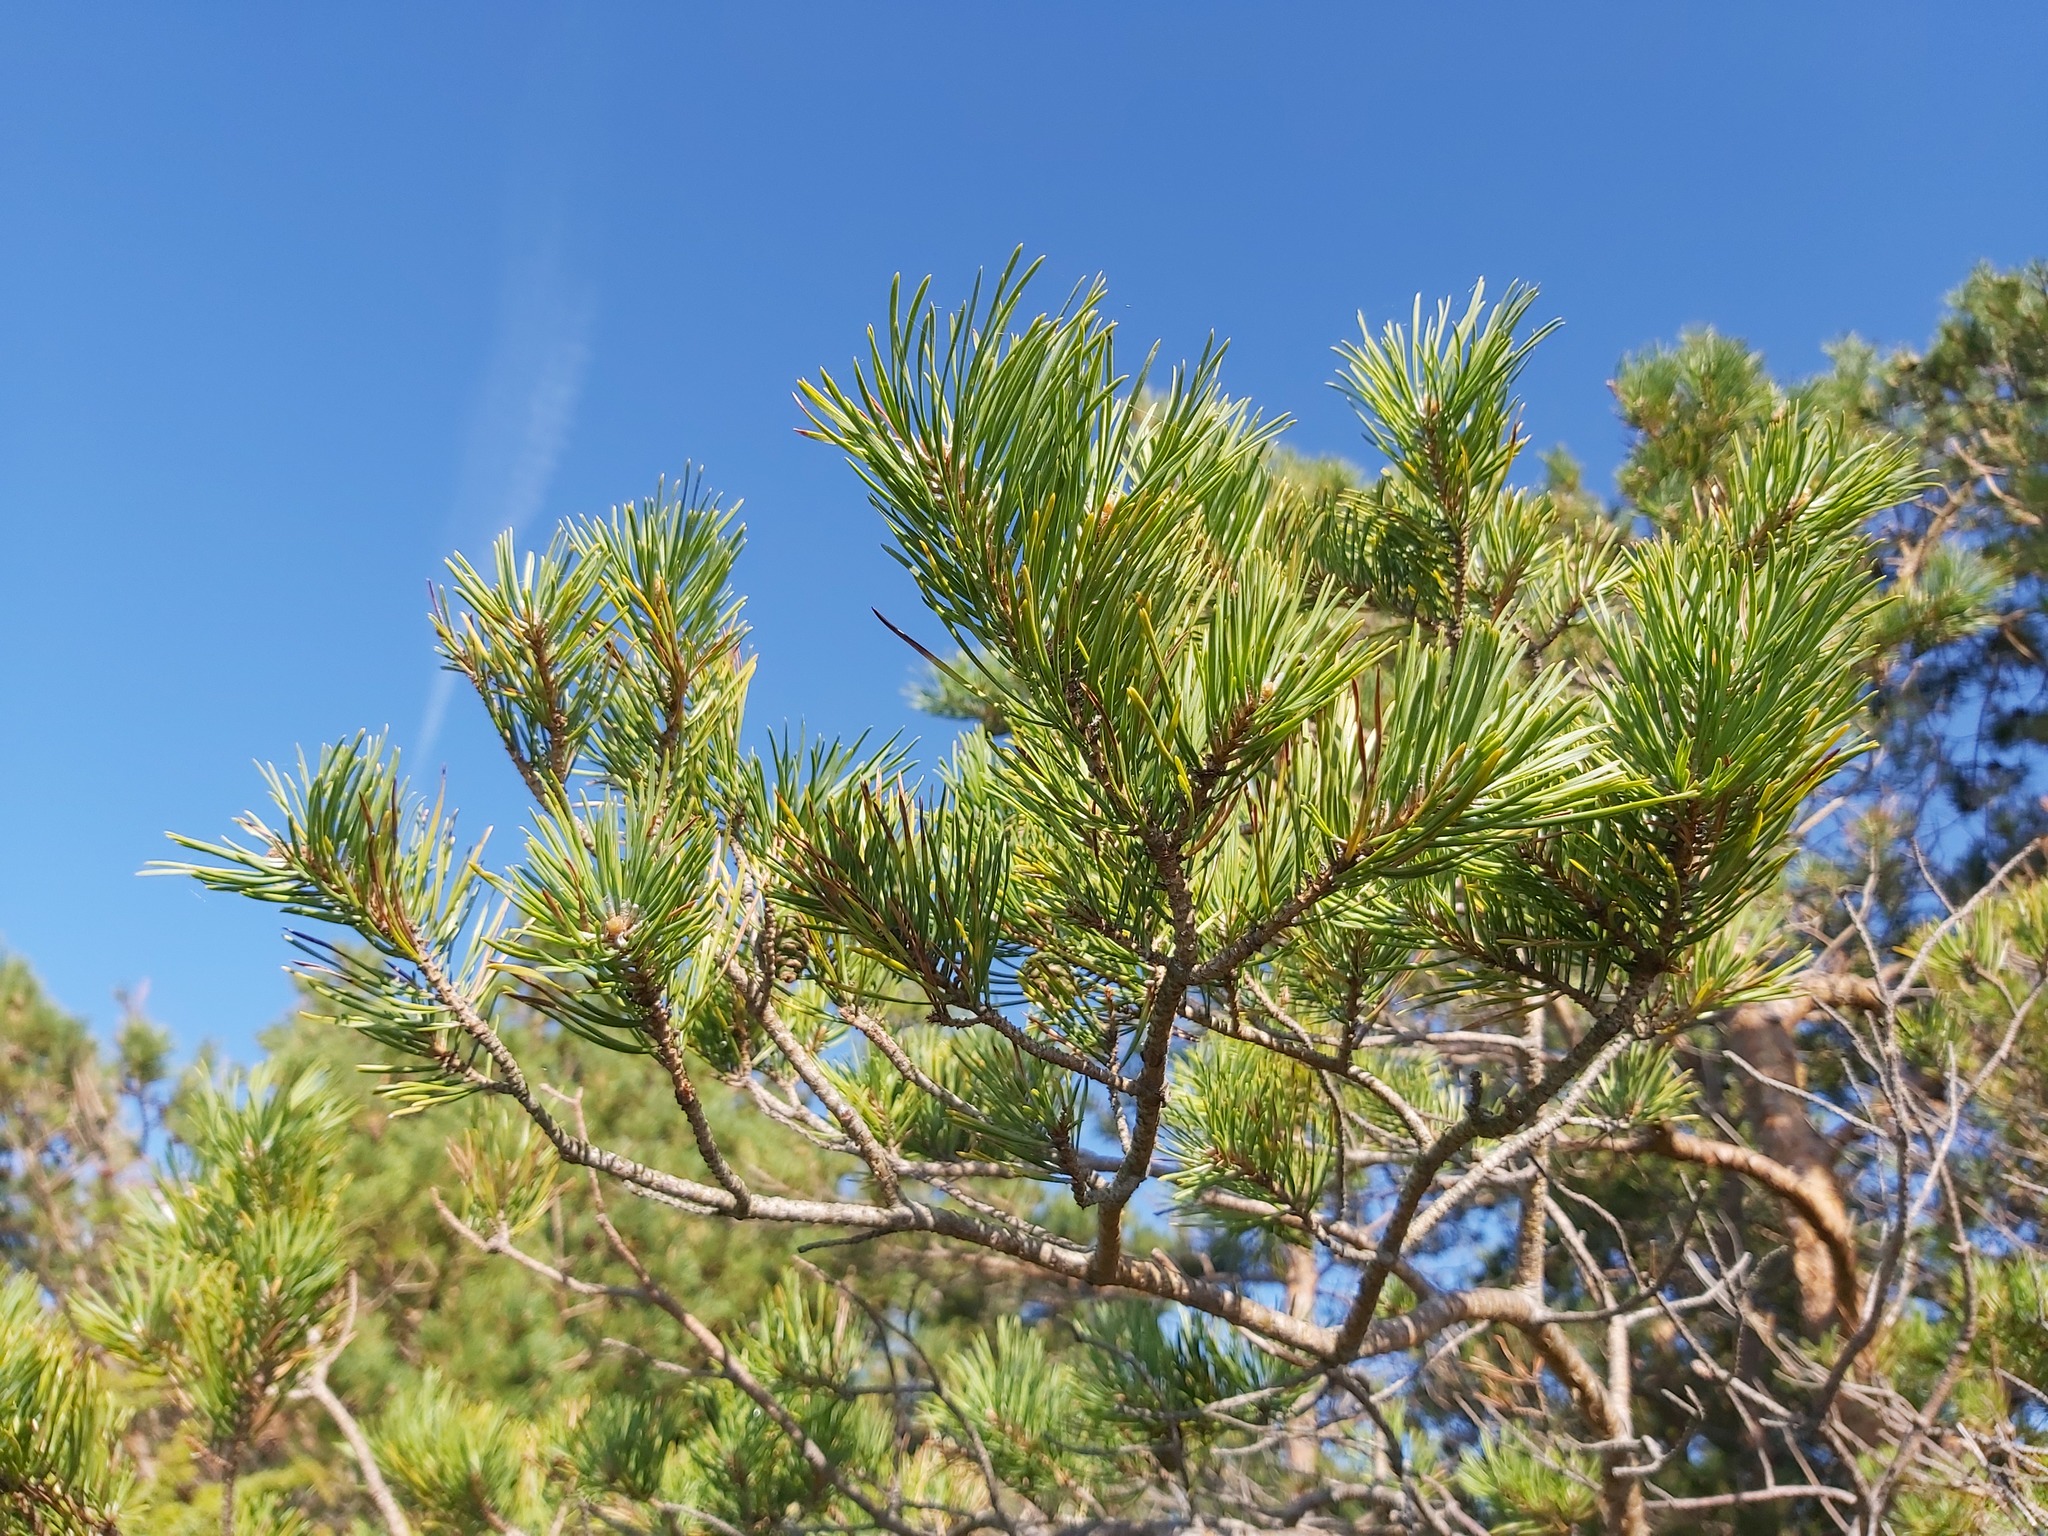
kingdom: Plantae
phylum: Tracheophyta
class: Pinopsida
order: Pinales
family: Pinaceae
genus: Pinus
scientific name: Pinus sylvestris
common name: Scots pine
